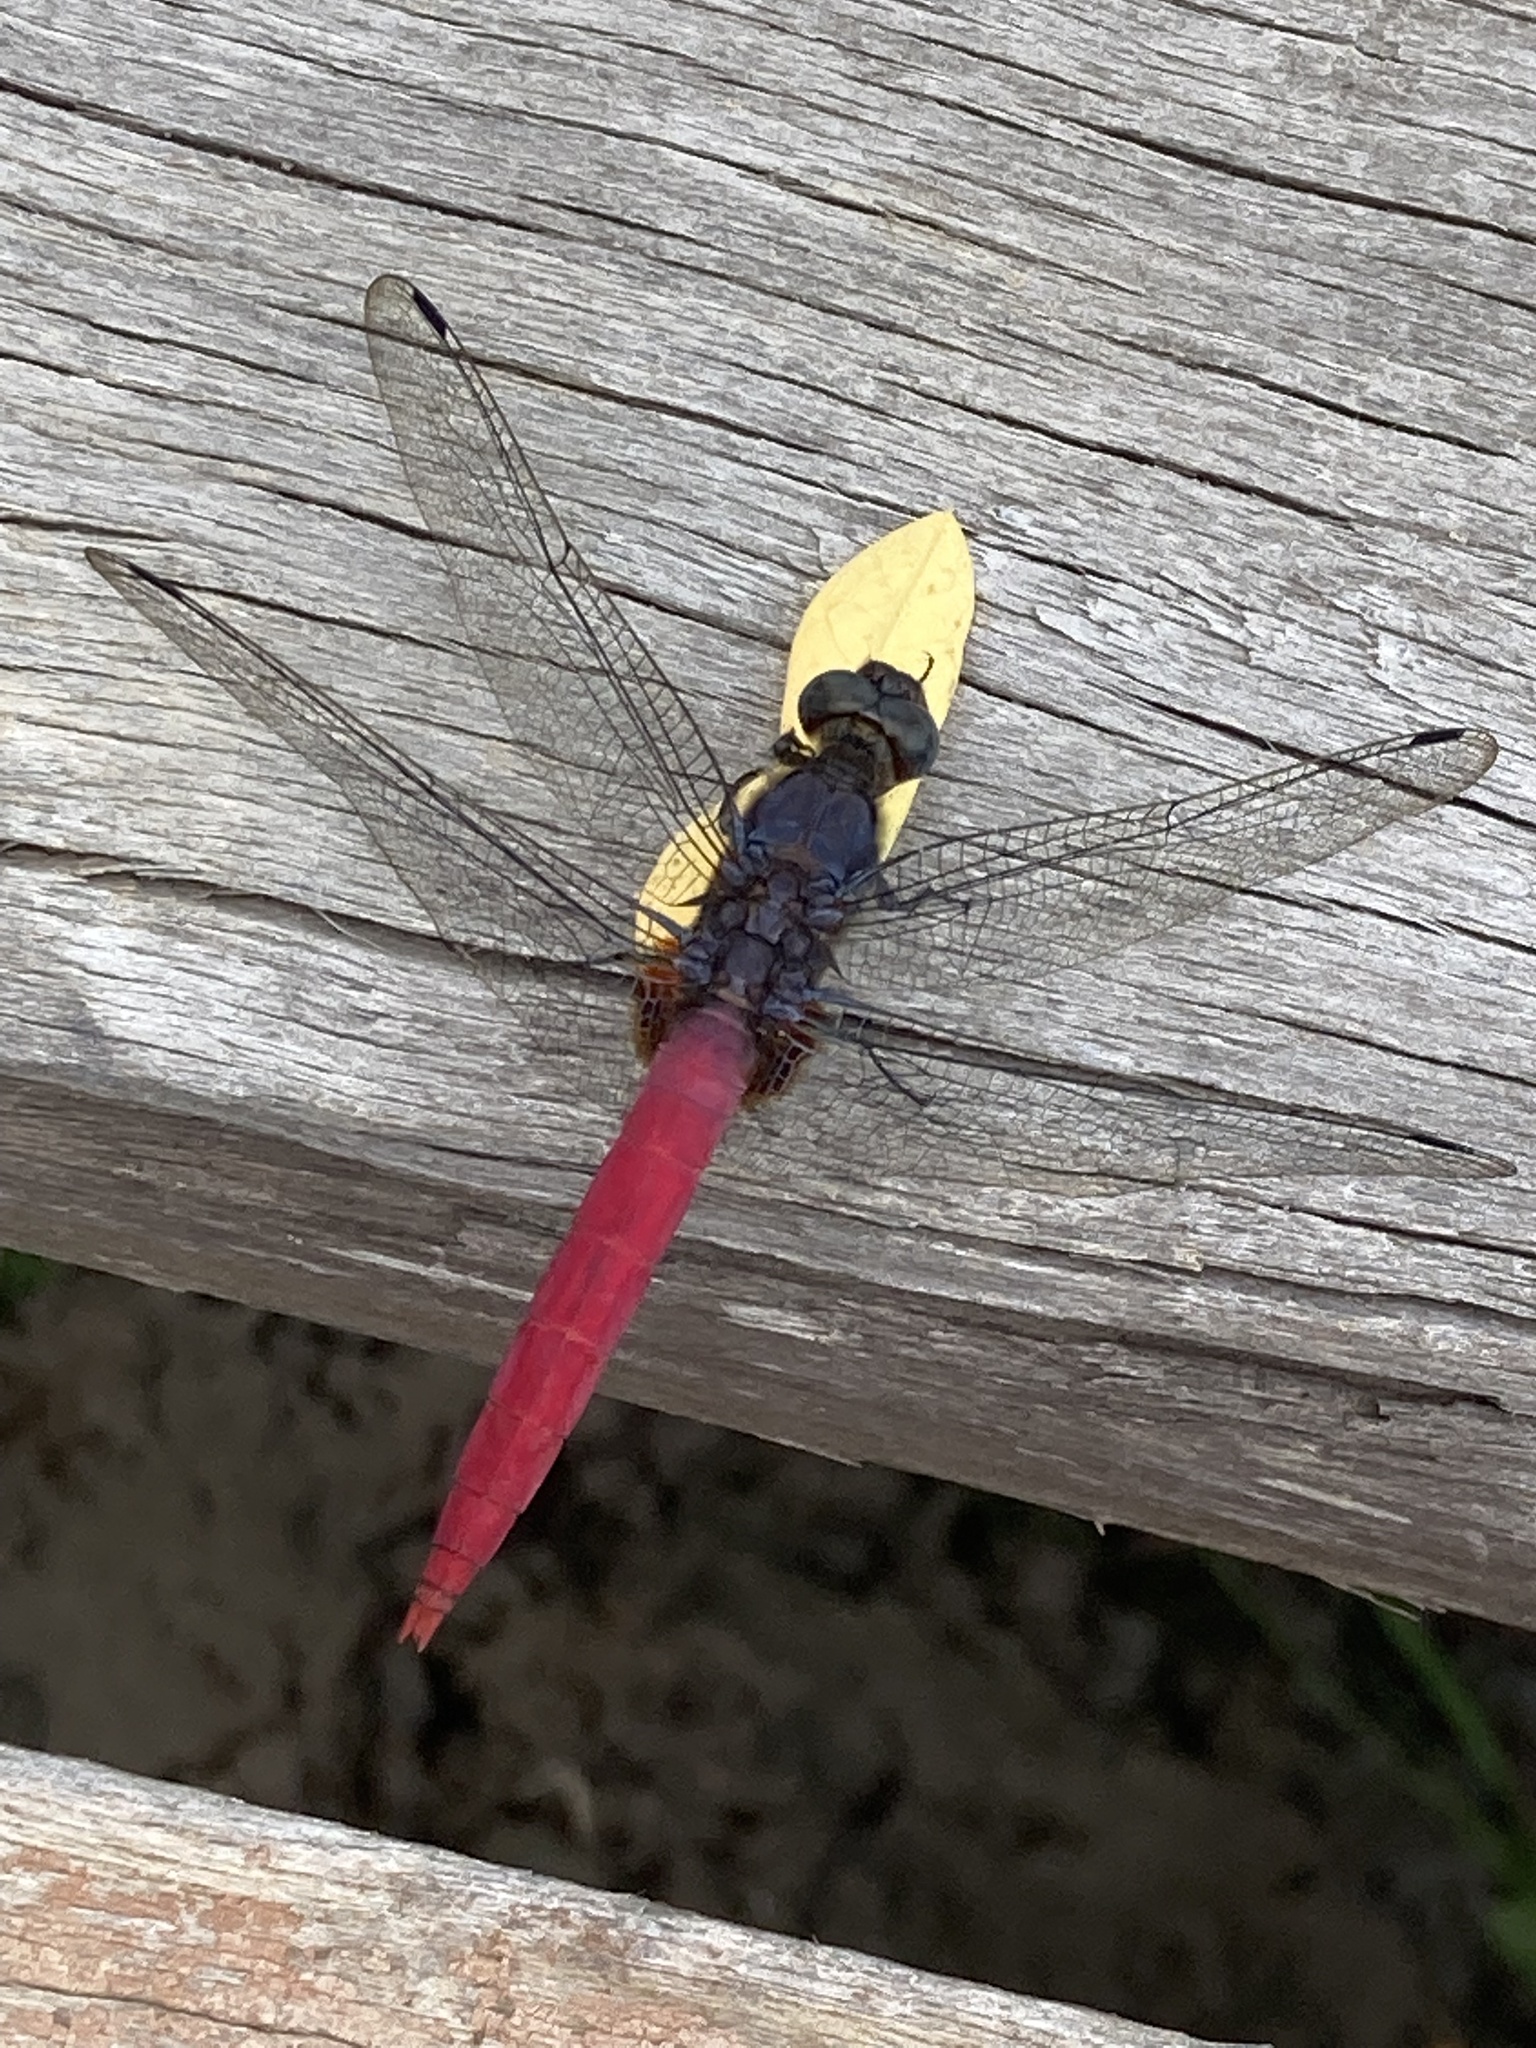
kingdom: Animalia
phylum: Arthropoda
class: Insecta
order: Odonata
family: Libellulidae
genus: Orthetrum
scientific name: Orthetrum pruinosum
